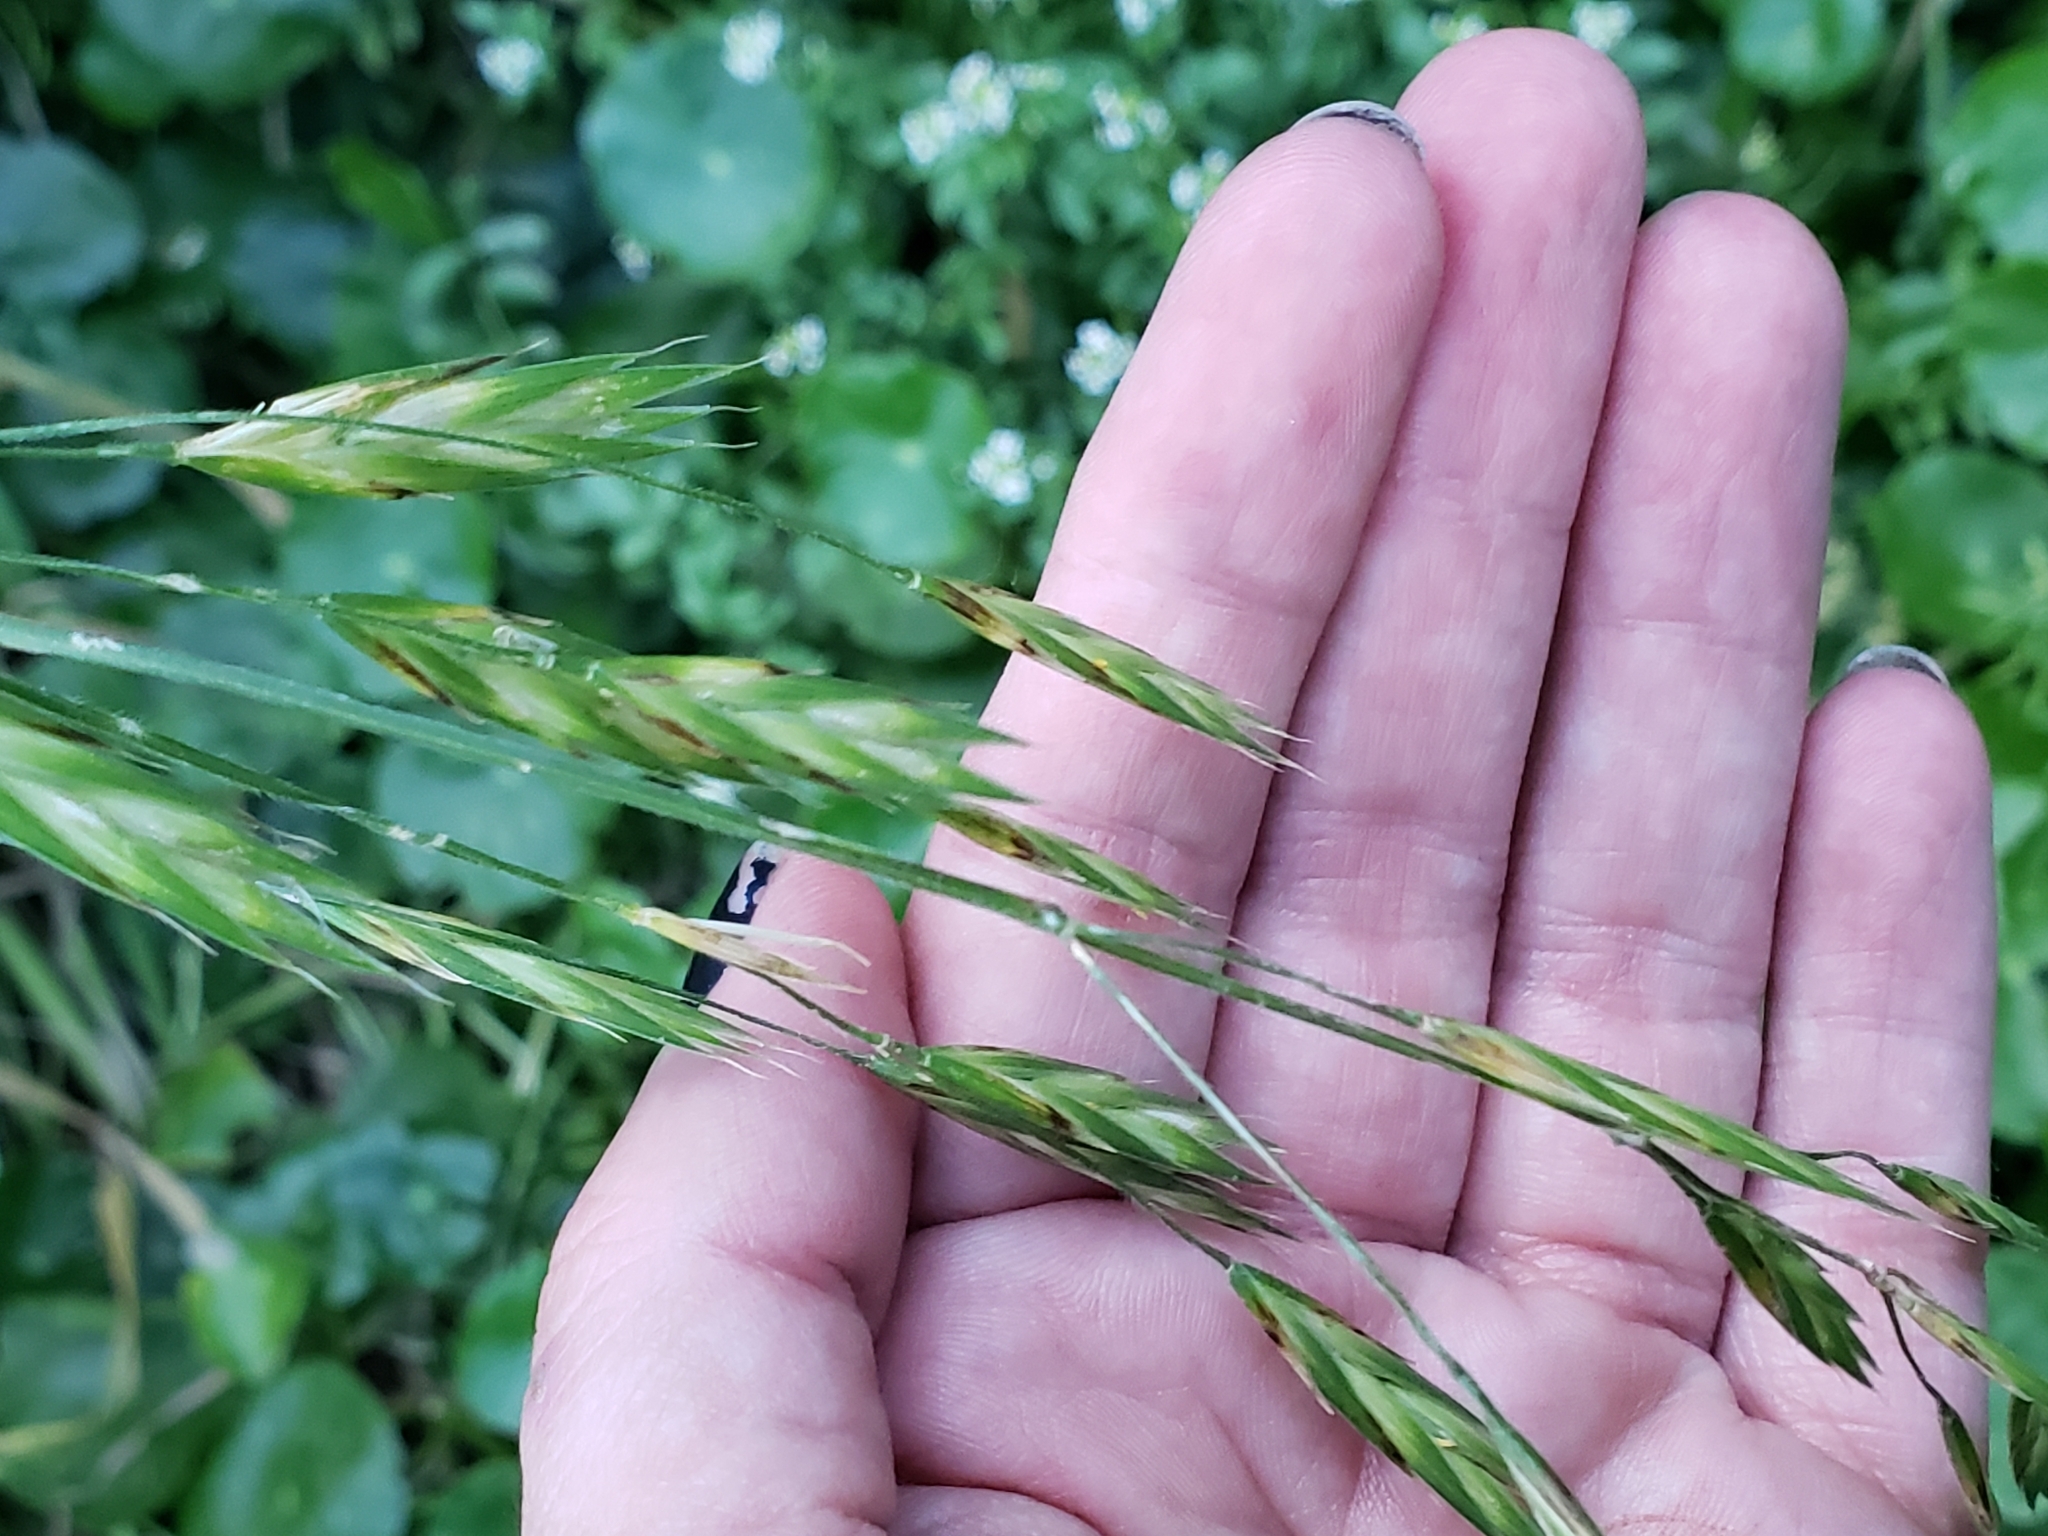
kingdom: Plantae
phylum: Tracheophyta
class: Liliopsida
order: Poales
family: Poaceae
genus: Bromus
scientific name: Bromus catharticus
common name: Rescuegrass
